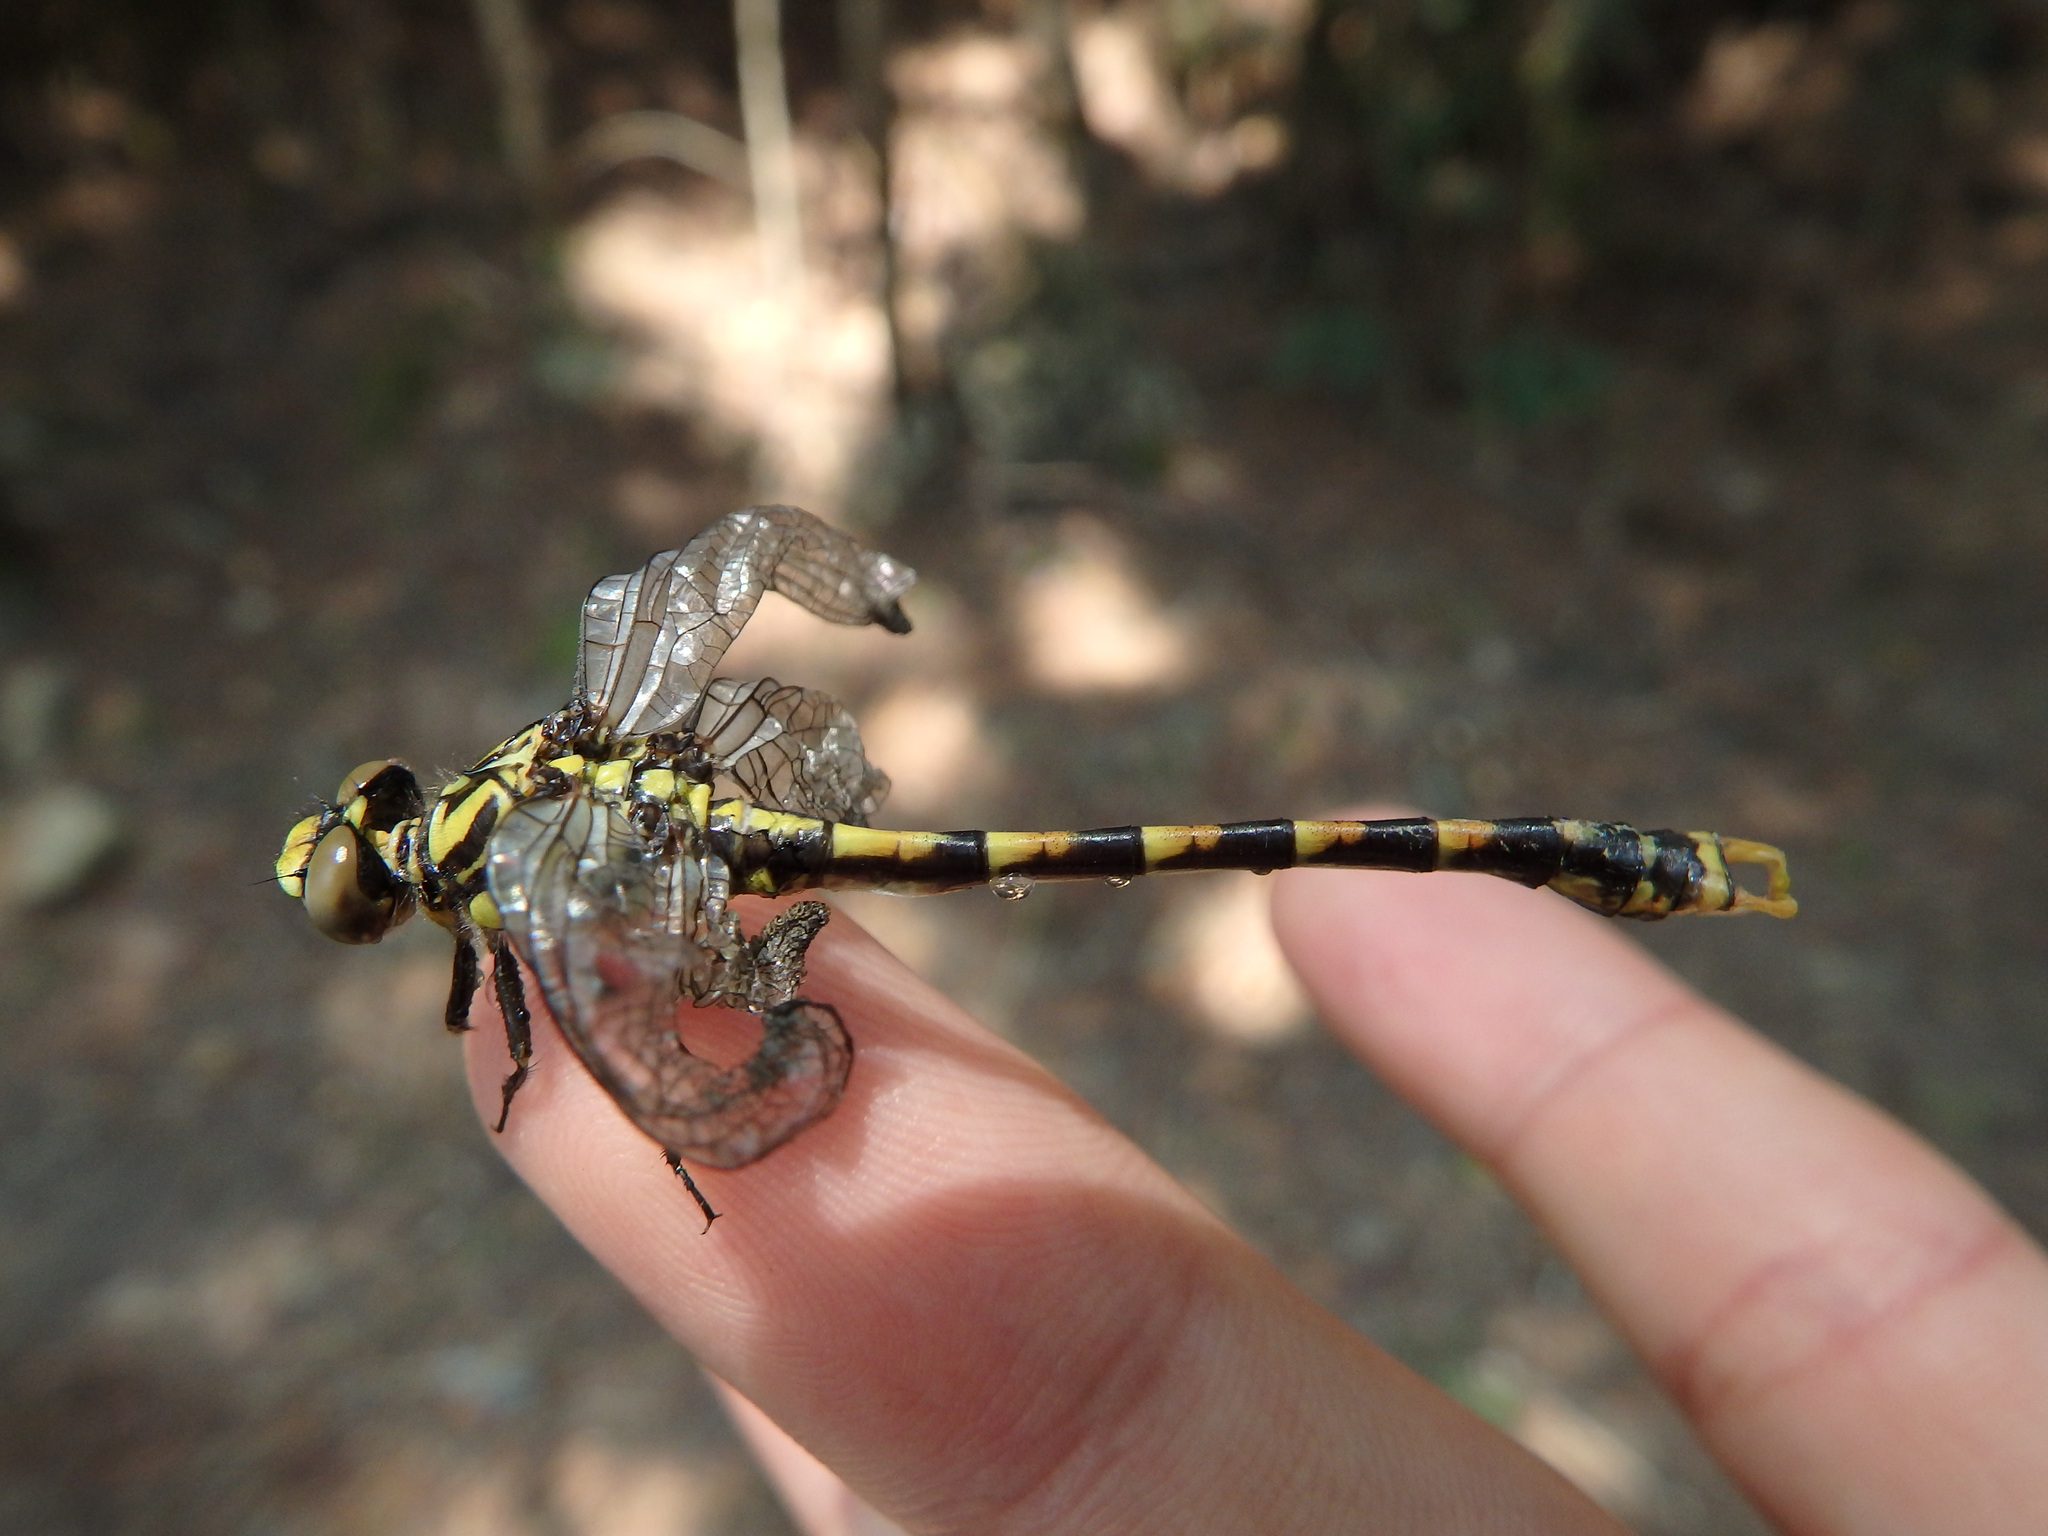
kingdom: Animalia
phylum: Arthropoda
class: Insecta
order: Odonata
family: Gomphidae
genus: Onychogomphus
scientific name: Onychogomphus uncatus
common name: Large pincertail
